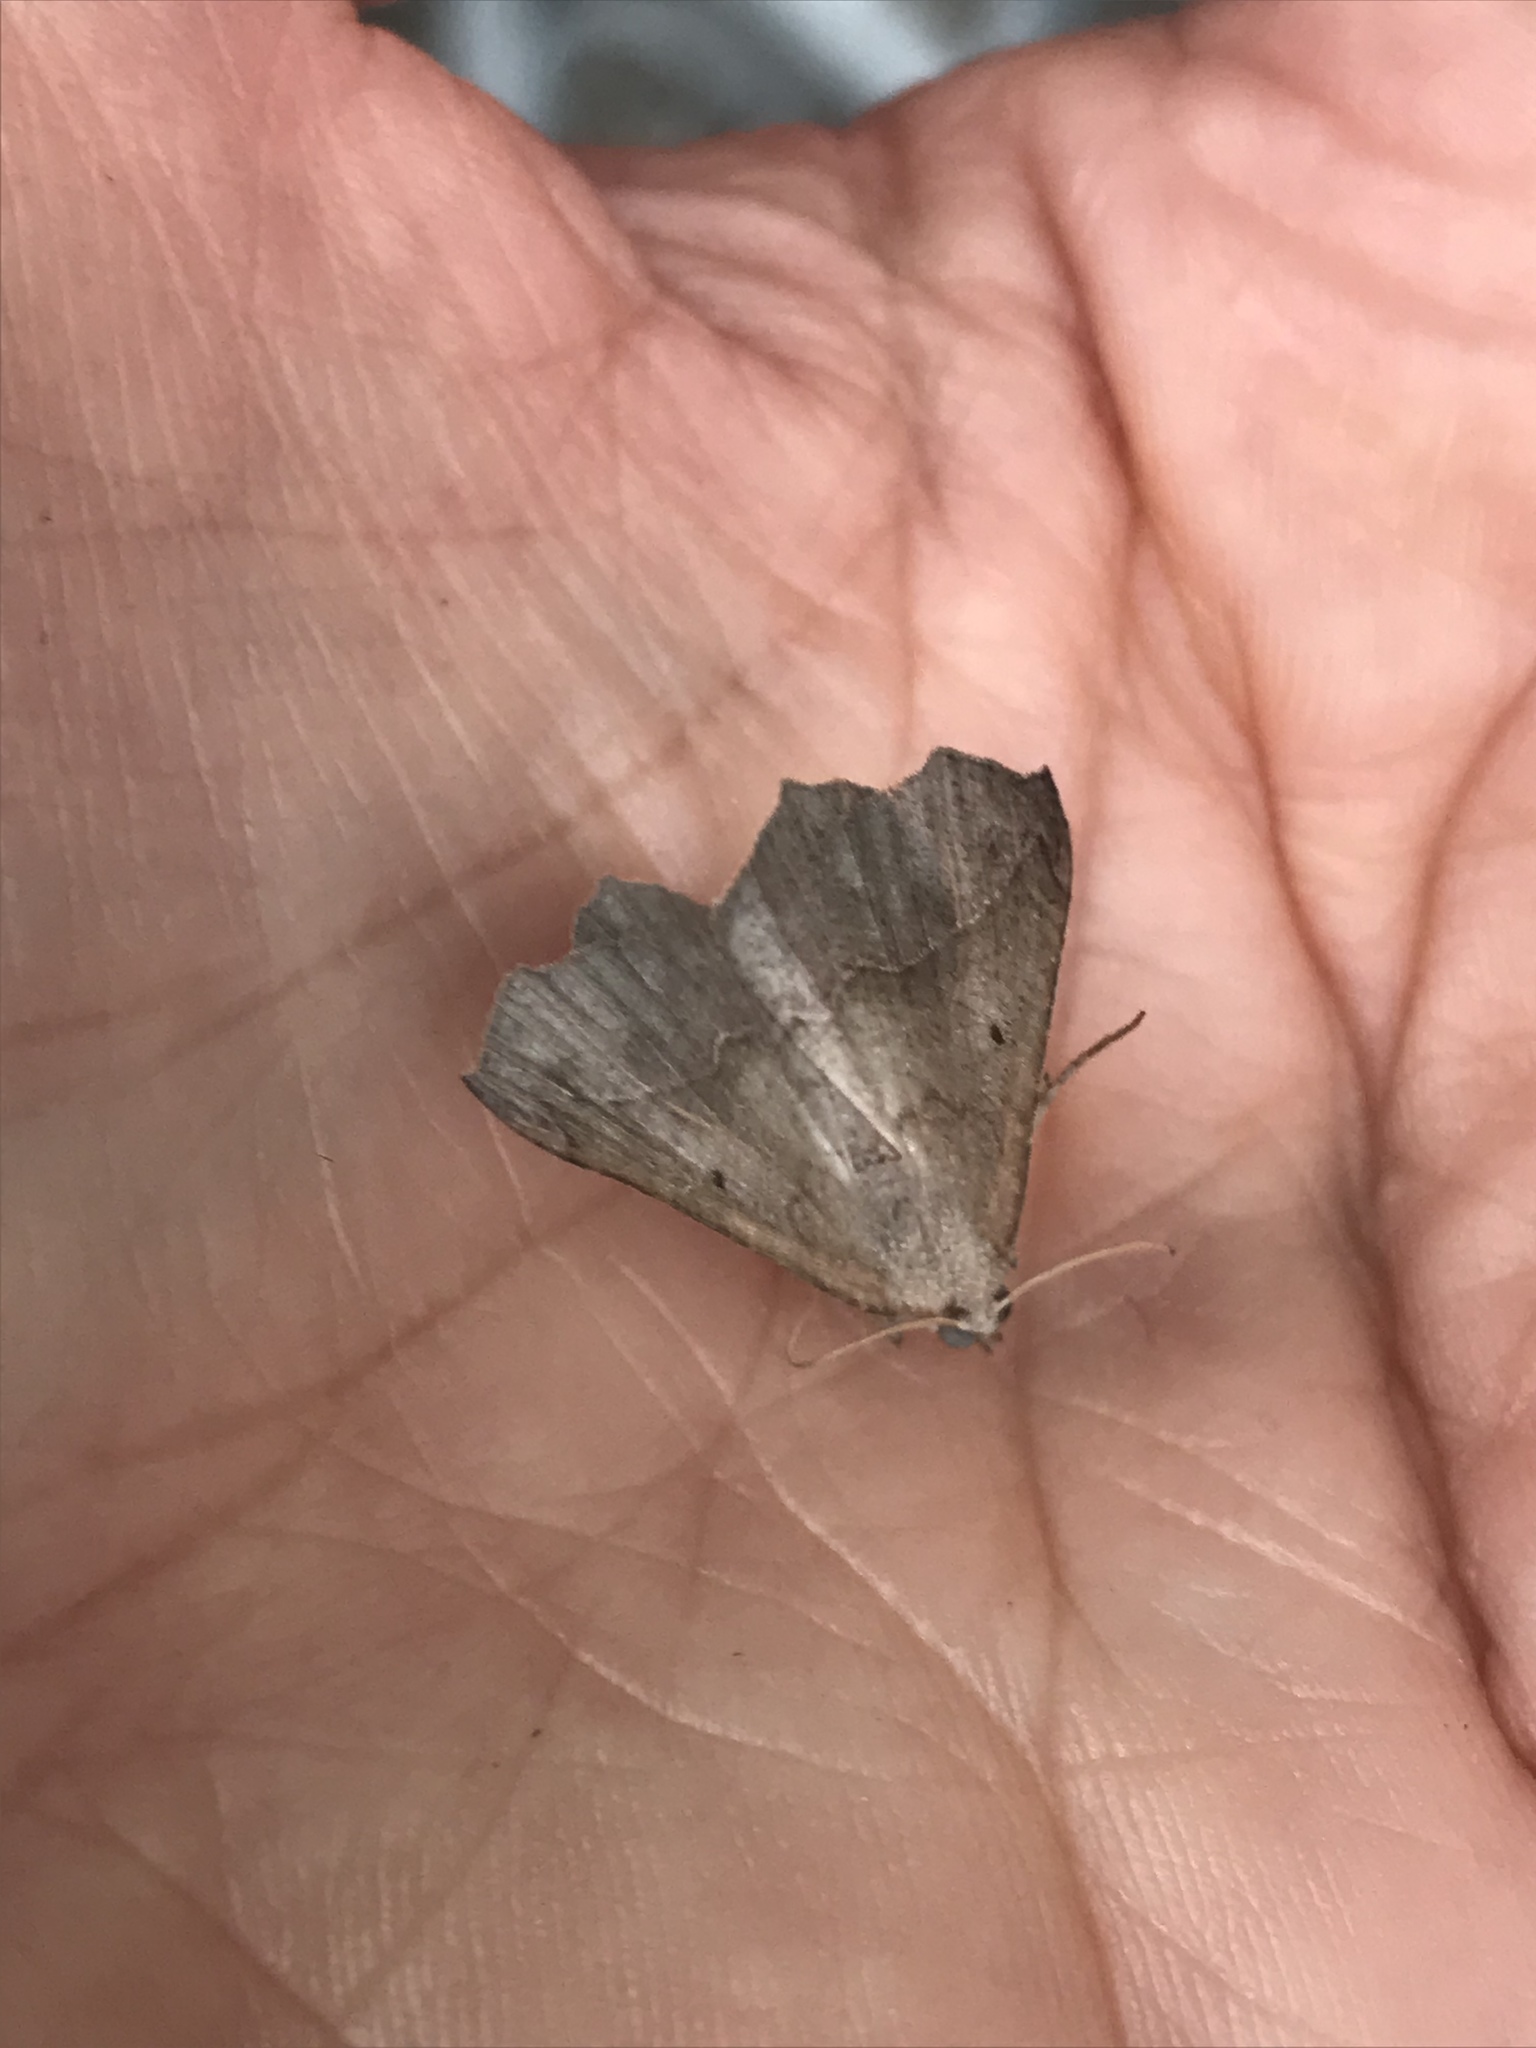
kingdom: Animalia
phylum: Arthropoda
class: Insecta
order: Lepidoptera
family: Geometridae
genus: Prochoerodes
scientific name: Prochoerodes forficaria
